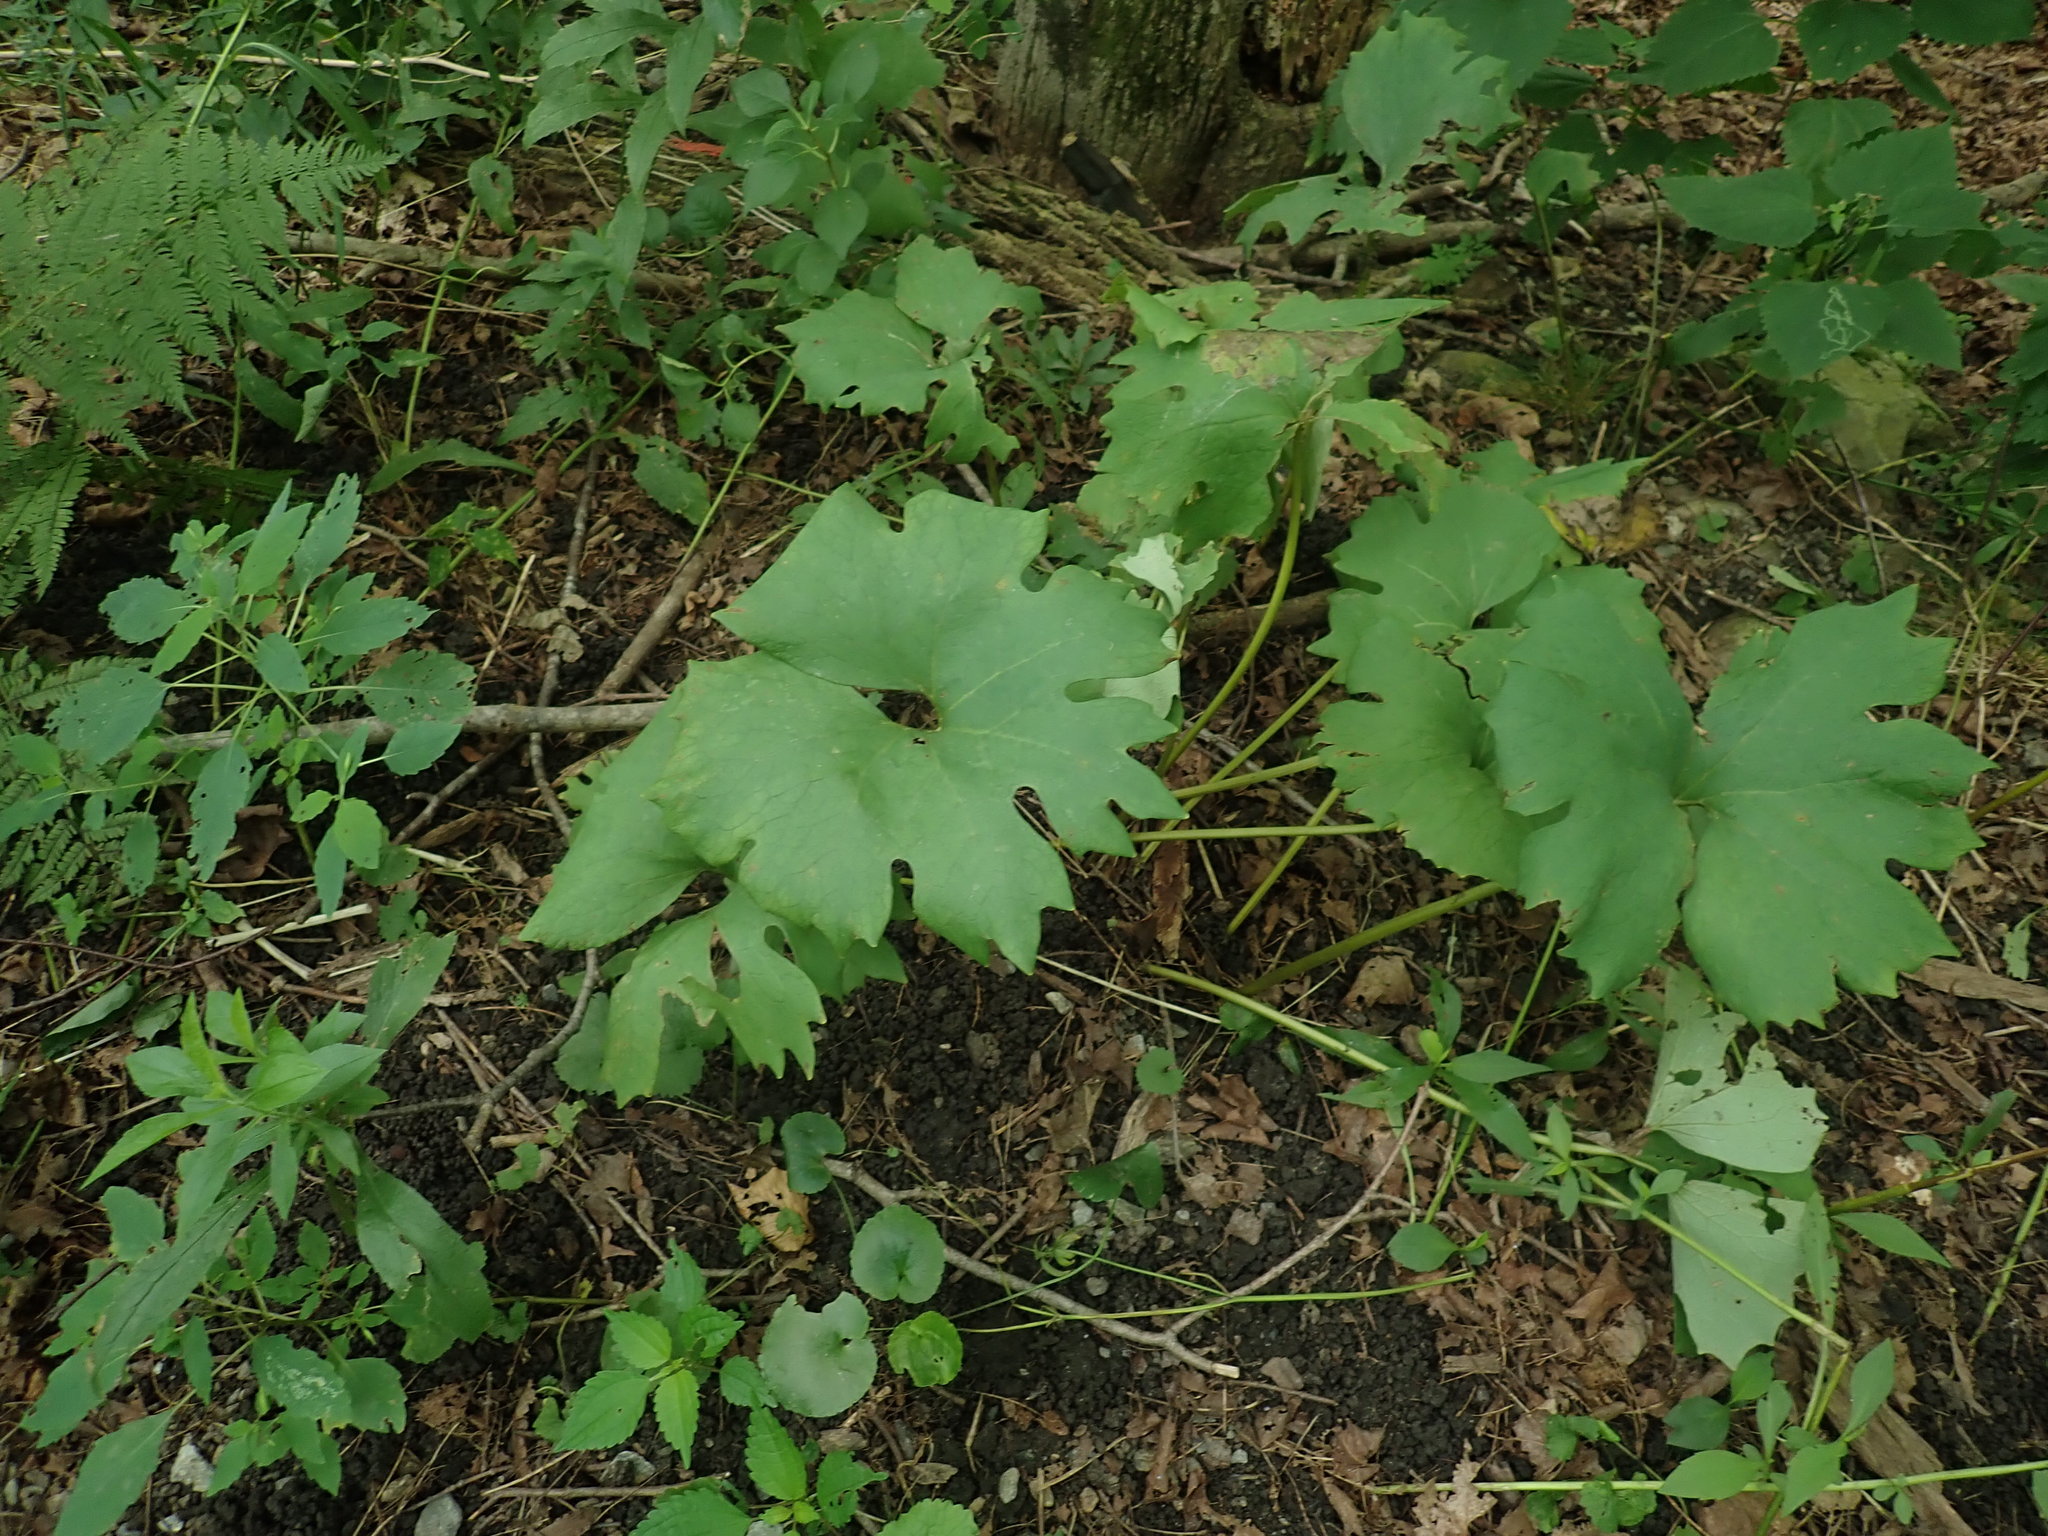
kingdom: Plantae
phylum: Tracheophyta
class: Magnoliopsida
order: Ranunculales
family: Papaveraceae
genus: Sanguinaria
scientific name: Sanguinaria canadensis
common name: Bloodroot
